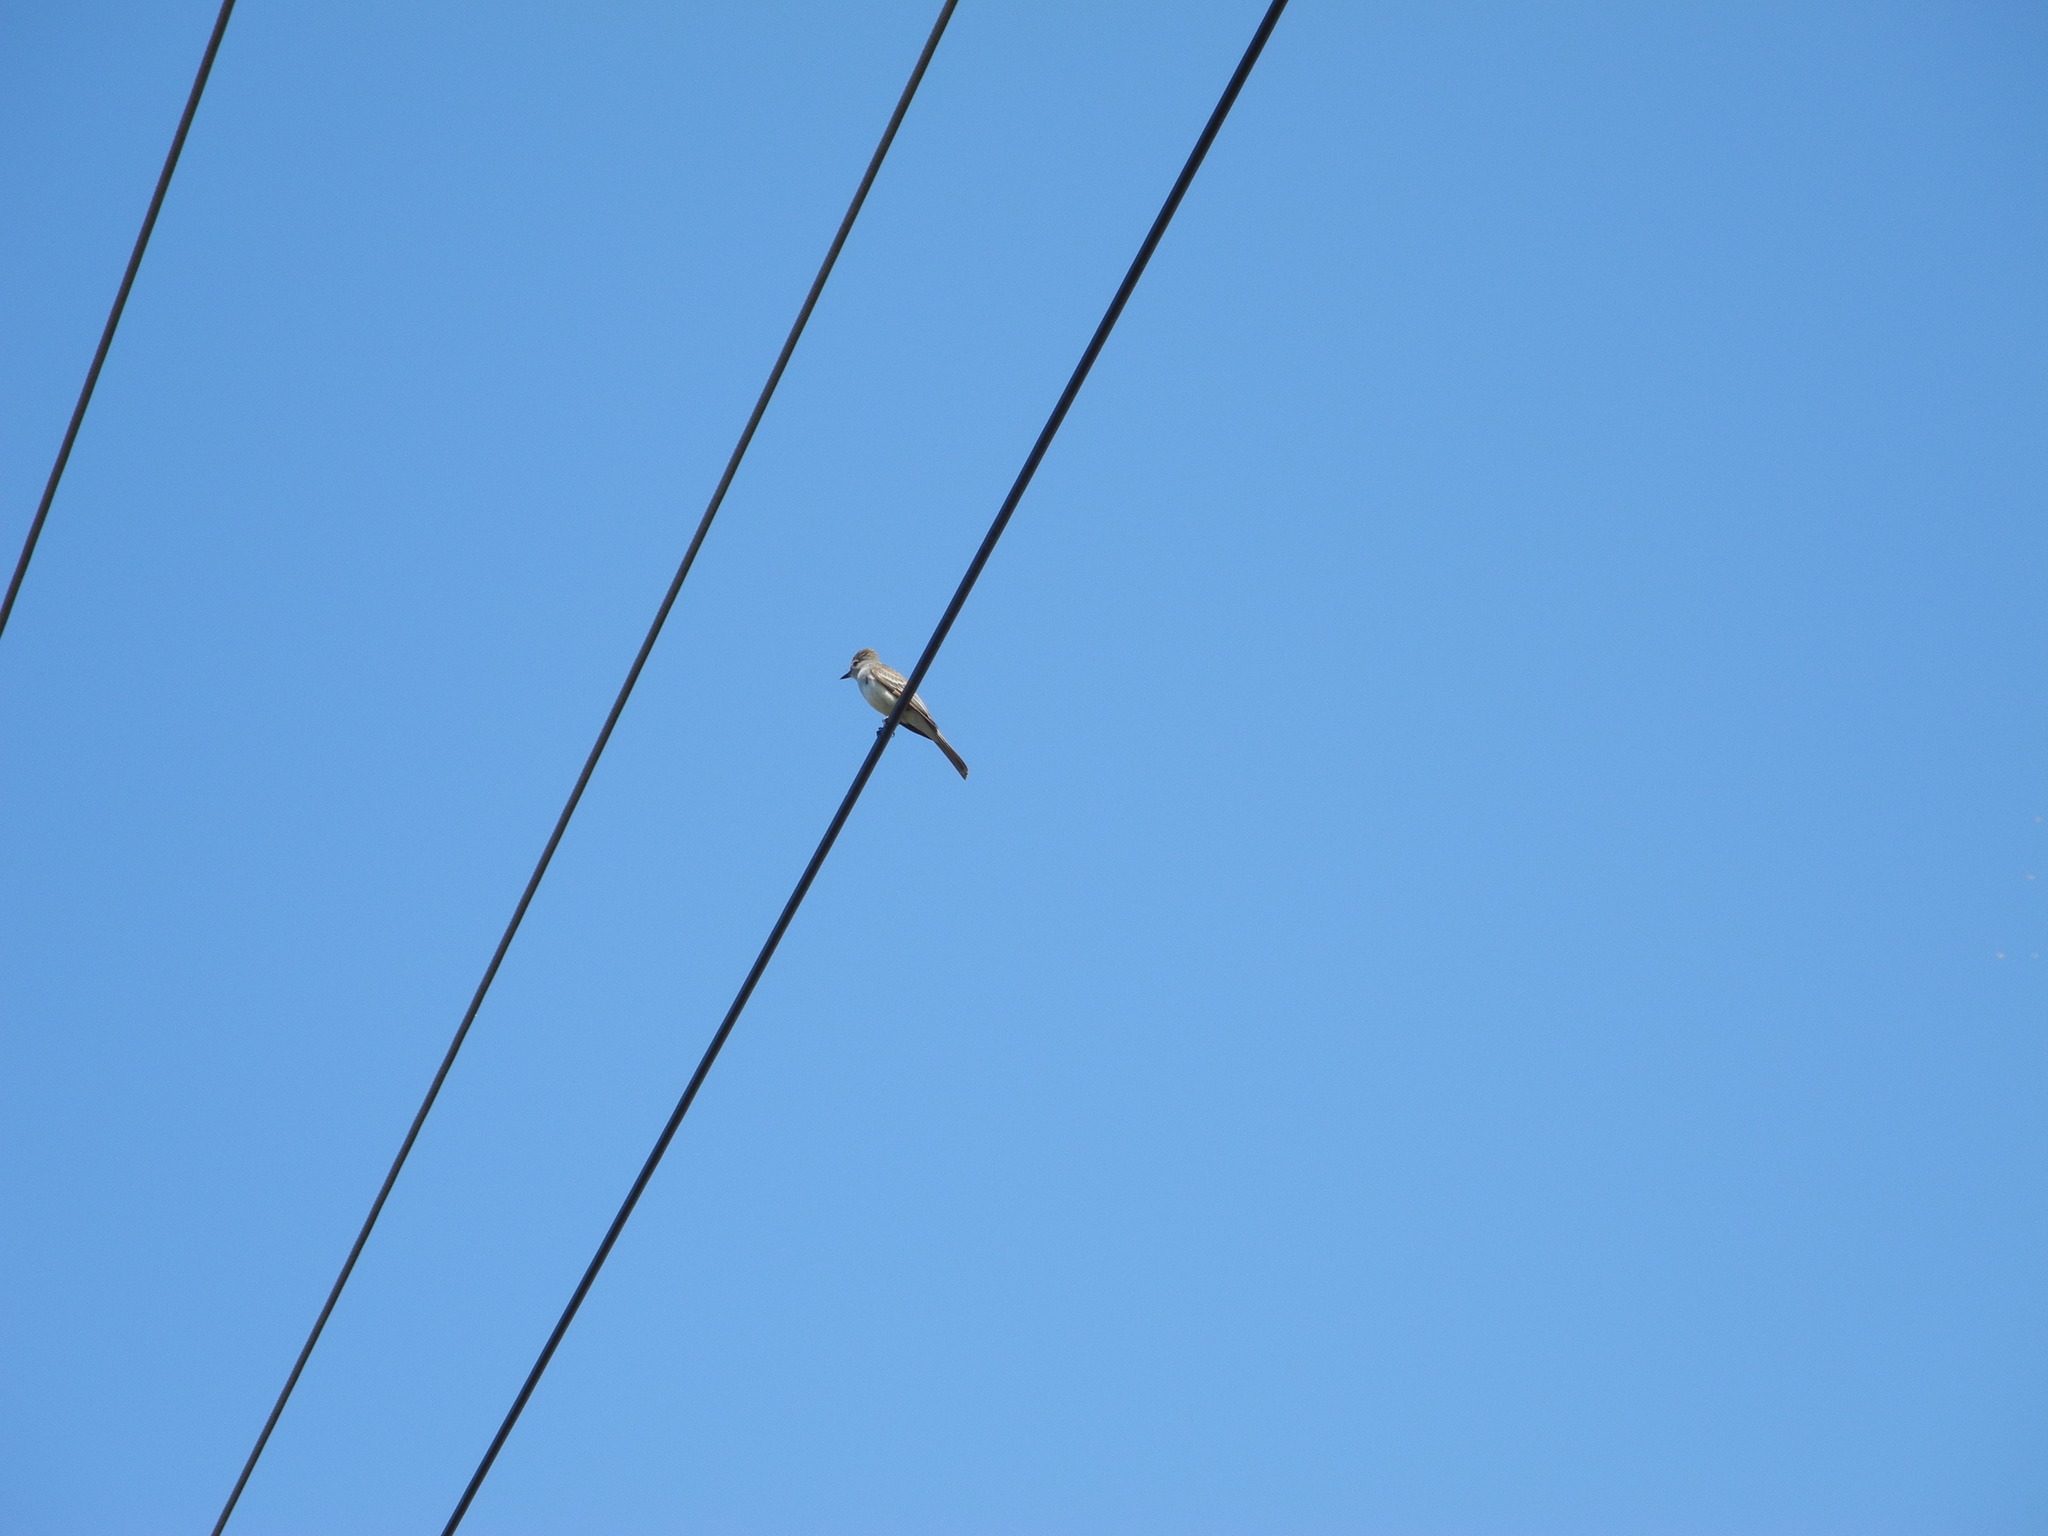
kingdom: Animalia
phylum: Chordata
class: Aves
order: Passeriformes
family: Tyrannidae
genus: Myiarchus
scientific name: Myiarchus cinerascens
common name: Ash-throated flycatcher
